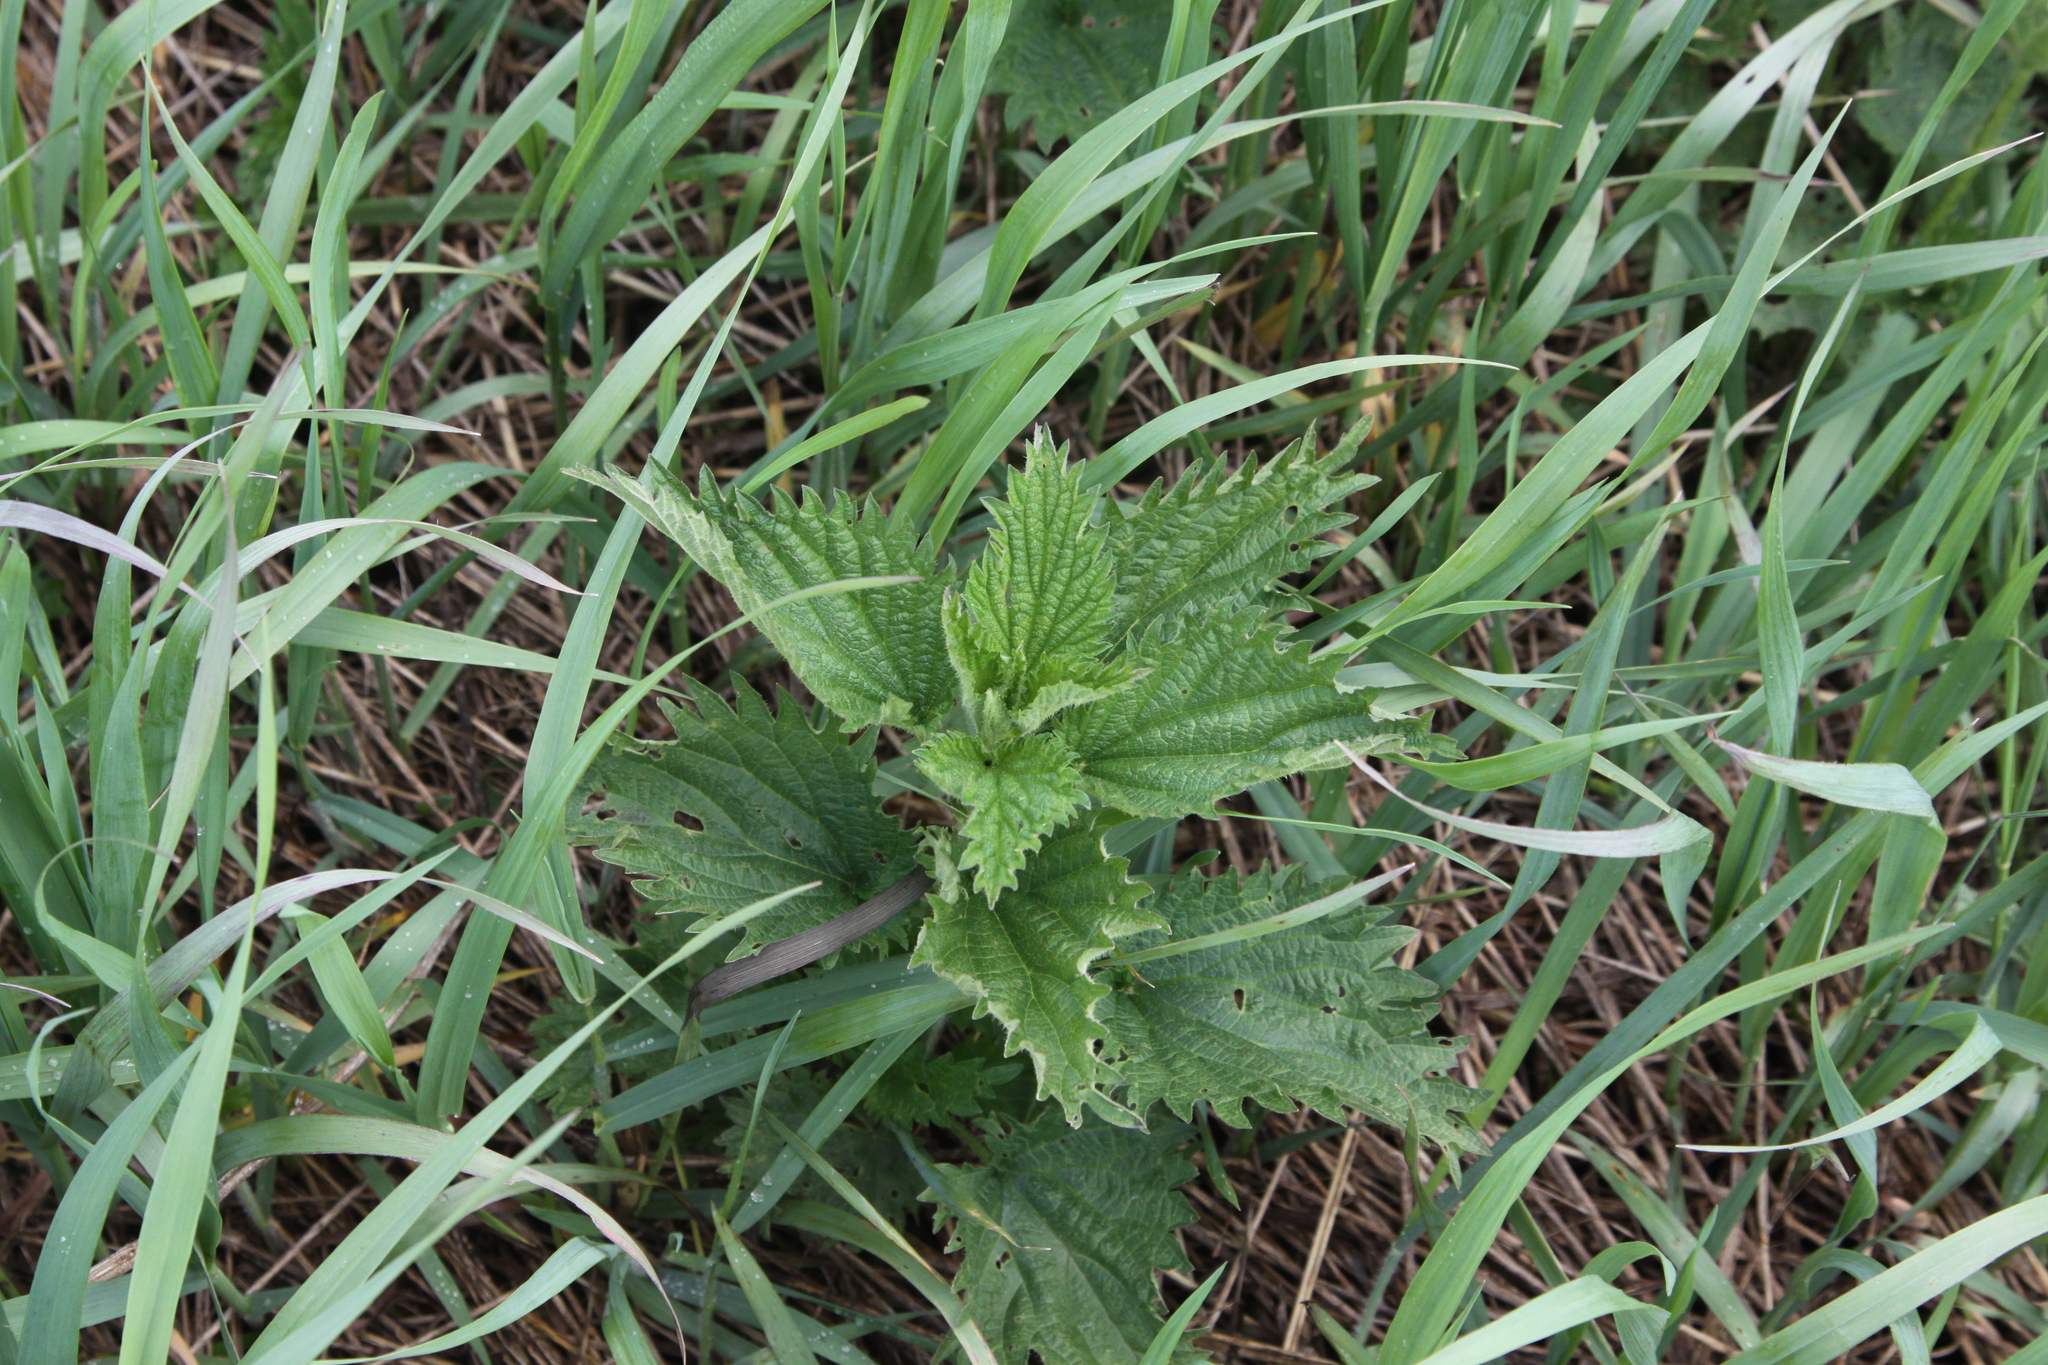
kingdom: Plantae
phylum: Tracheophyta
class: Magnoliopsida
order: Rosales
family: Urticaceae
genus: Urtica
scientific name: Urtica dioica
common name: Common nettle
